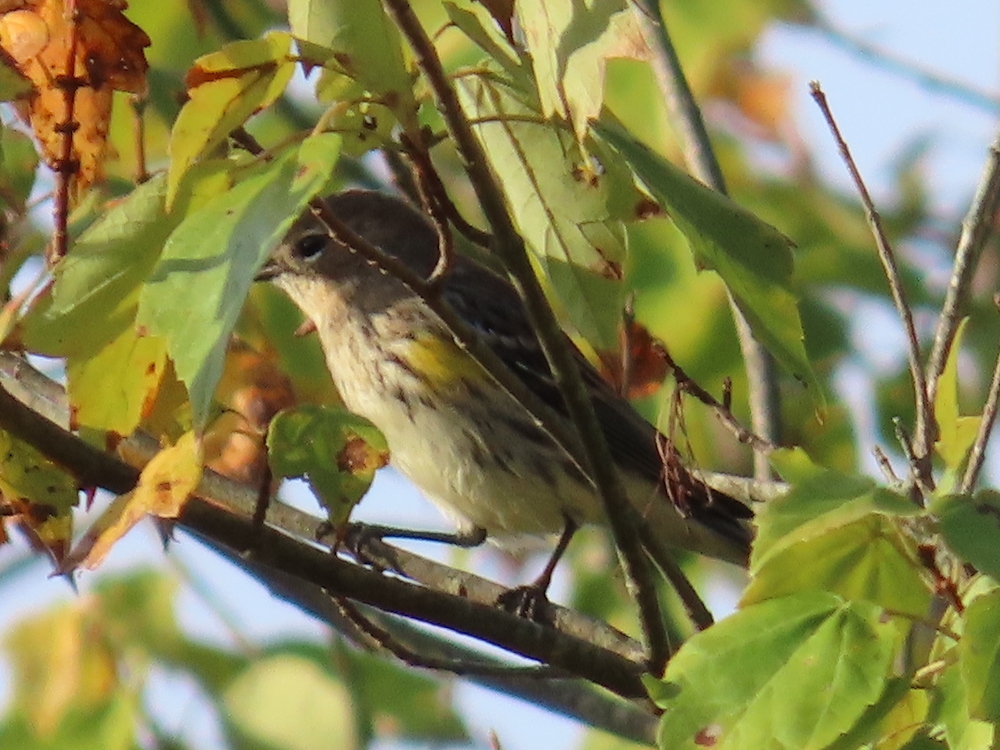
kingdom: Animalia
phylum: Chordata
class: Aves
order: Passeriformes
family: Parulidae
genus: Setophaga
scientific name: Setophaga coronata
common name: Myrtle warbler
